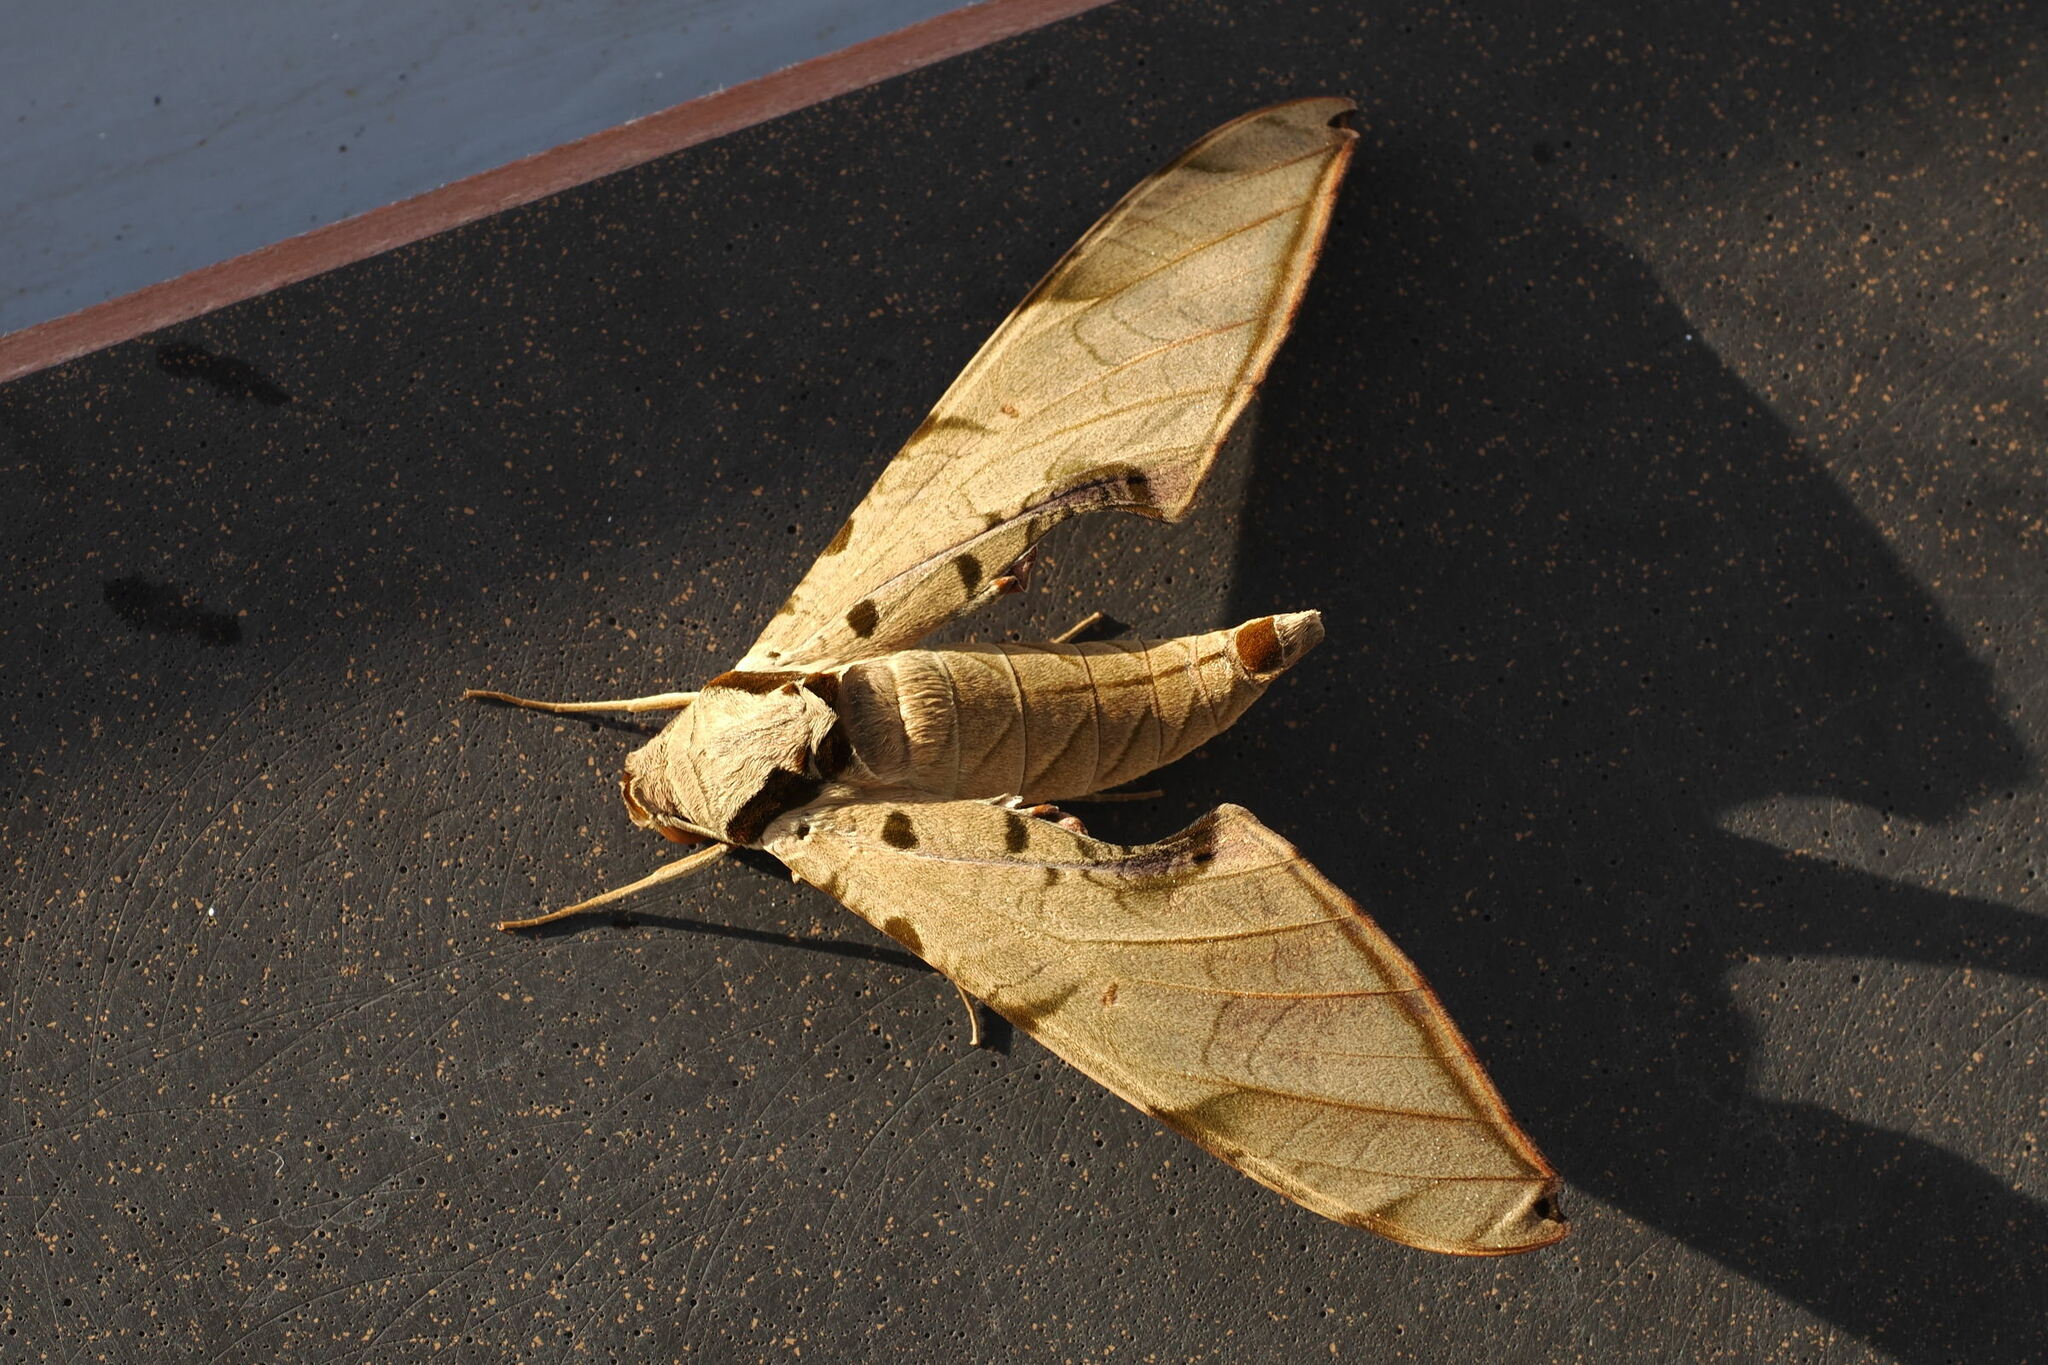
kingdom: Animalia
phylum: Arthropoda
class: Insecta
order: Lepidoptera
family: Sphingidae
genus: Protambulyx
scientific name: Protambulyx strigilis
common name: Streaked sphinx
